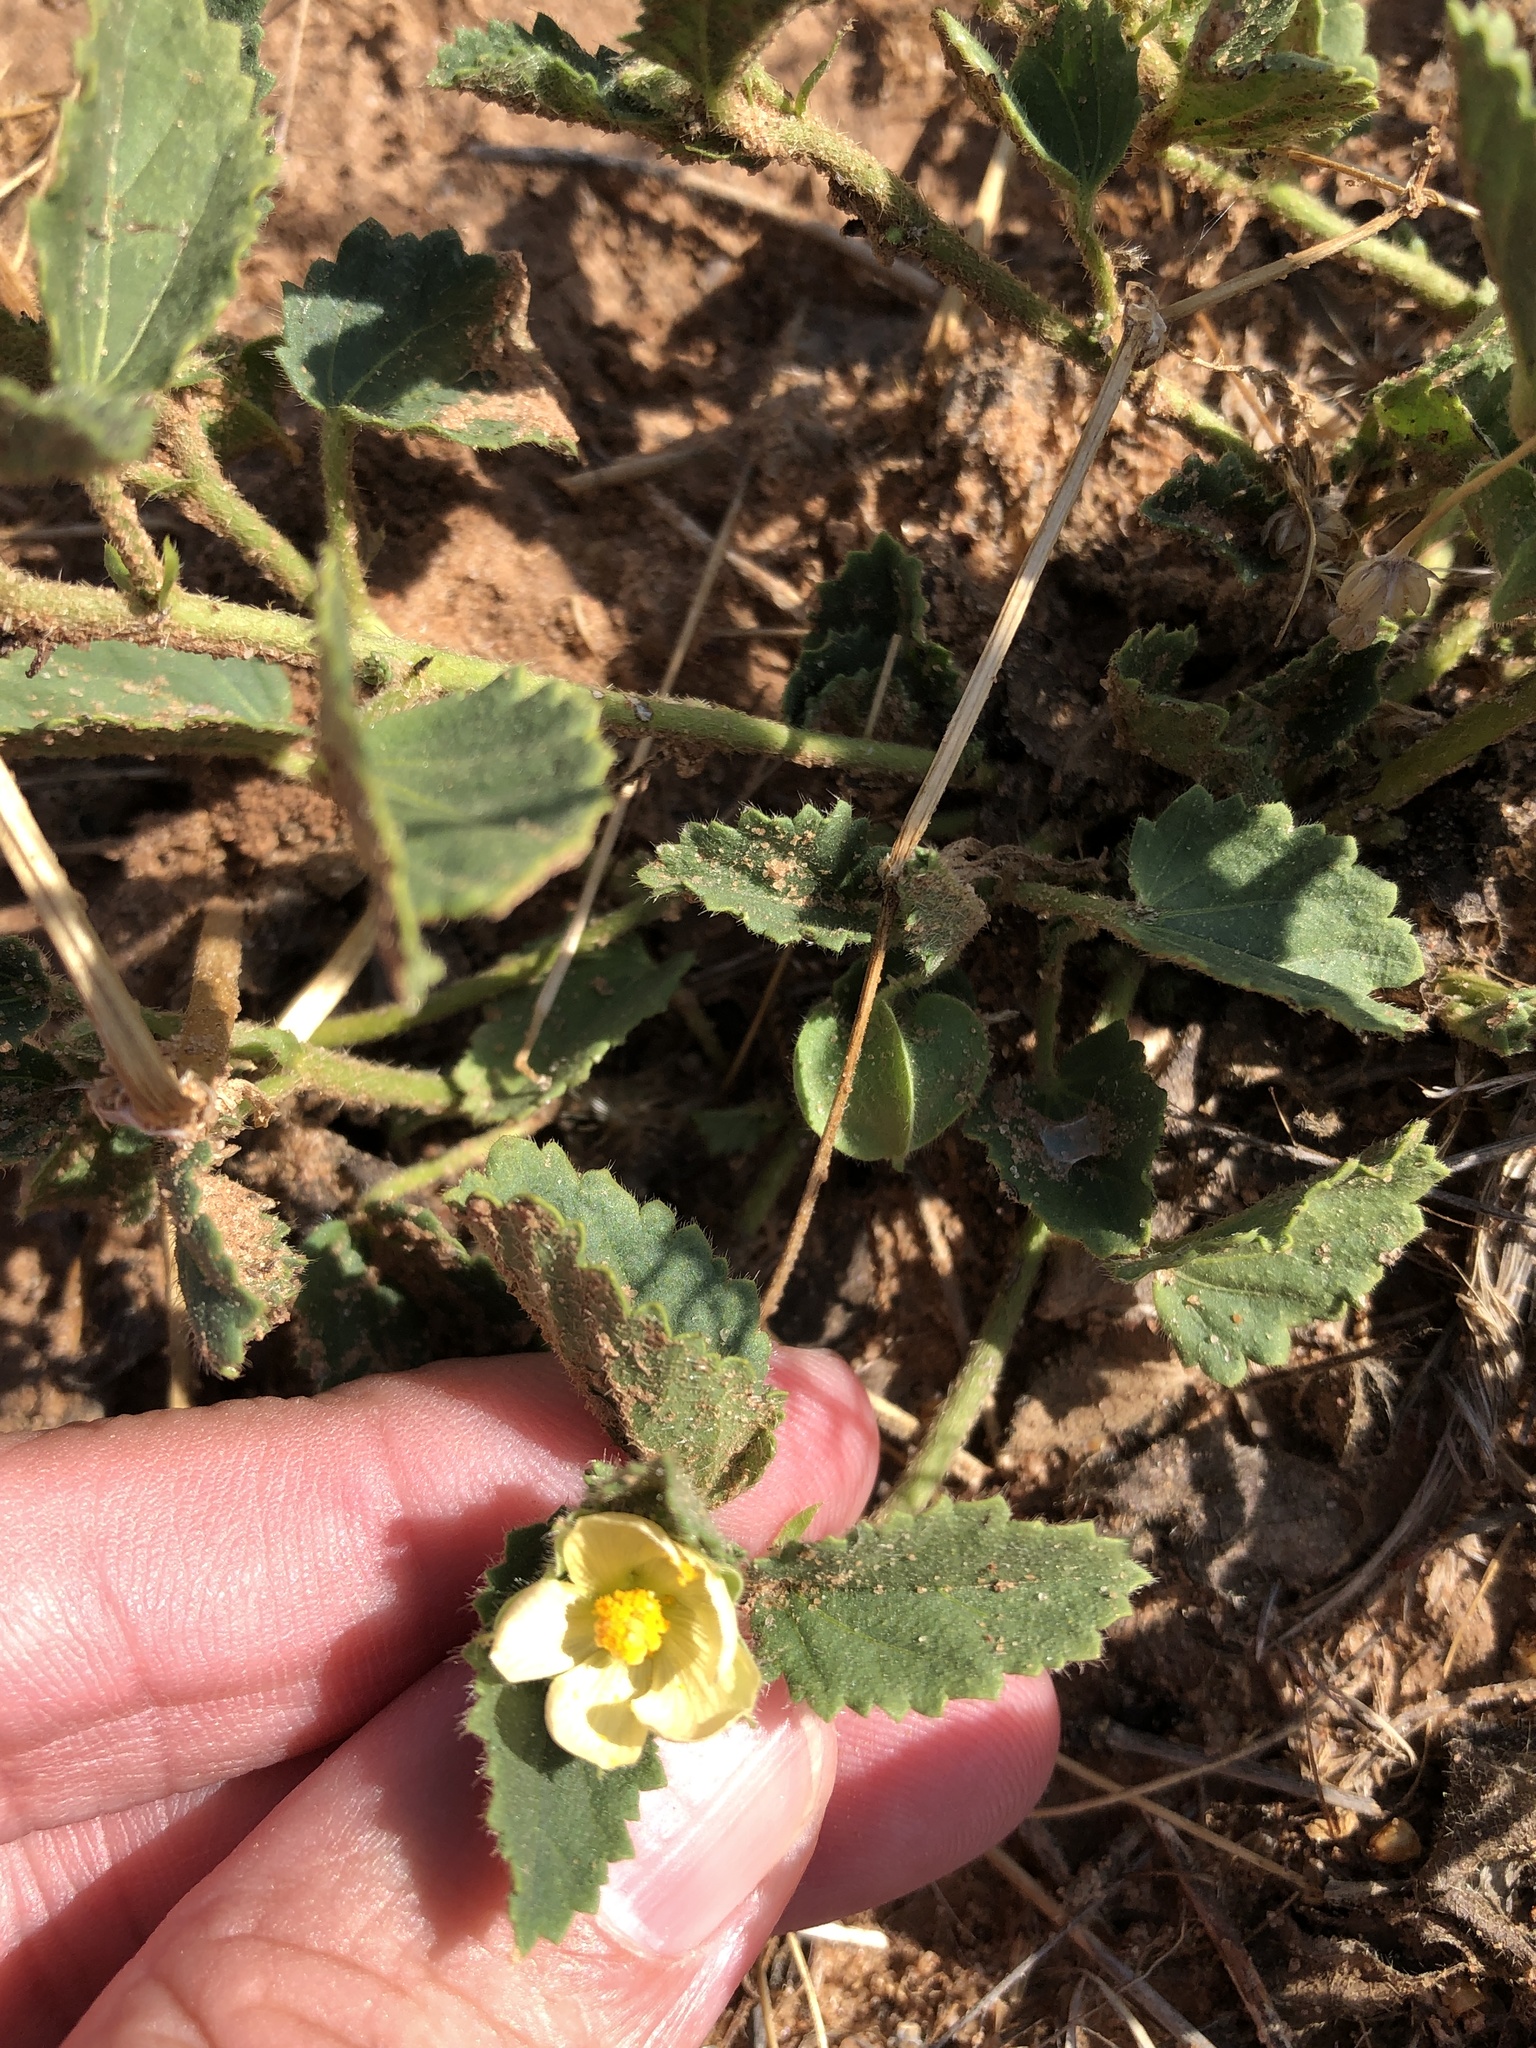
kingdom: Plantae
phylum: Tracheophyta
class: Magnoliopsida
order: Malvales
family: Malvaceae
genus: Rhynchosida
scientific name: Rhynchosida physocalyx
